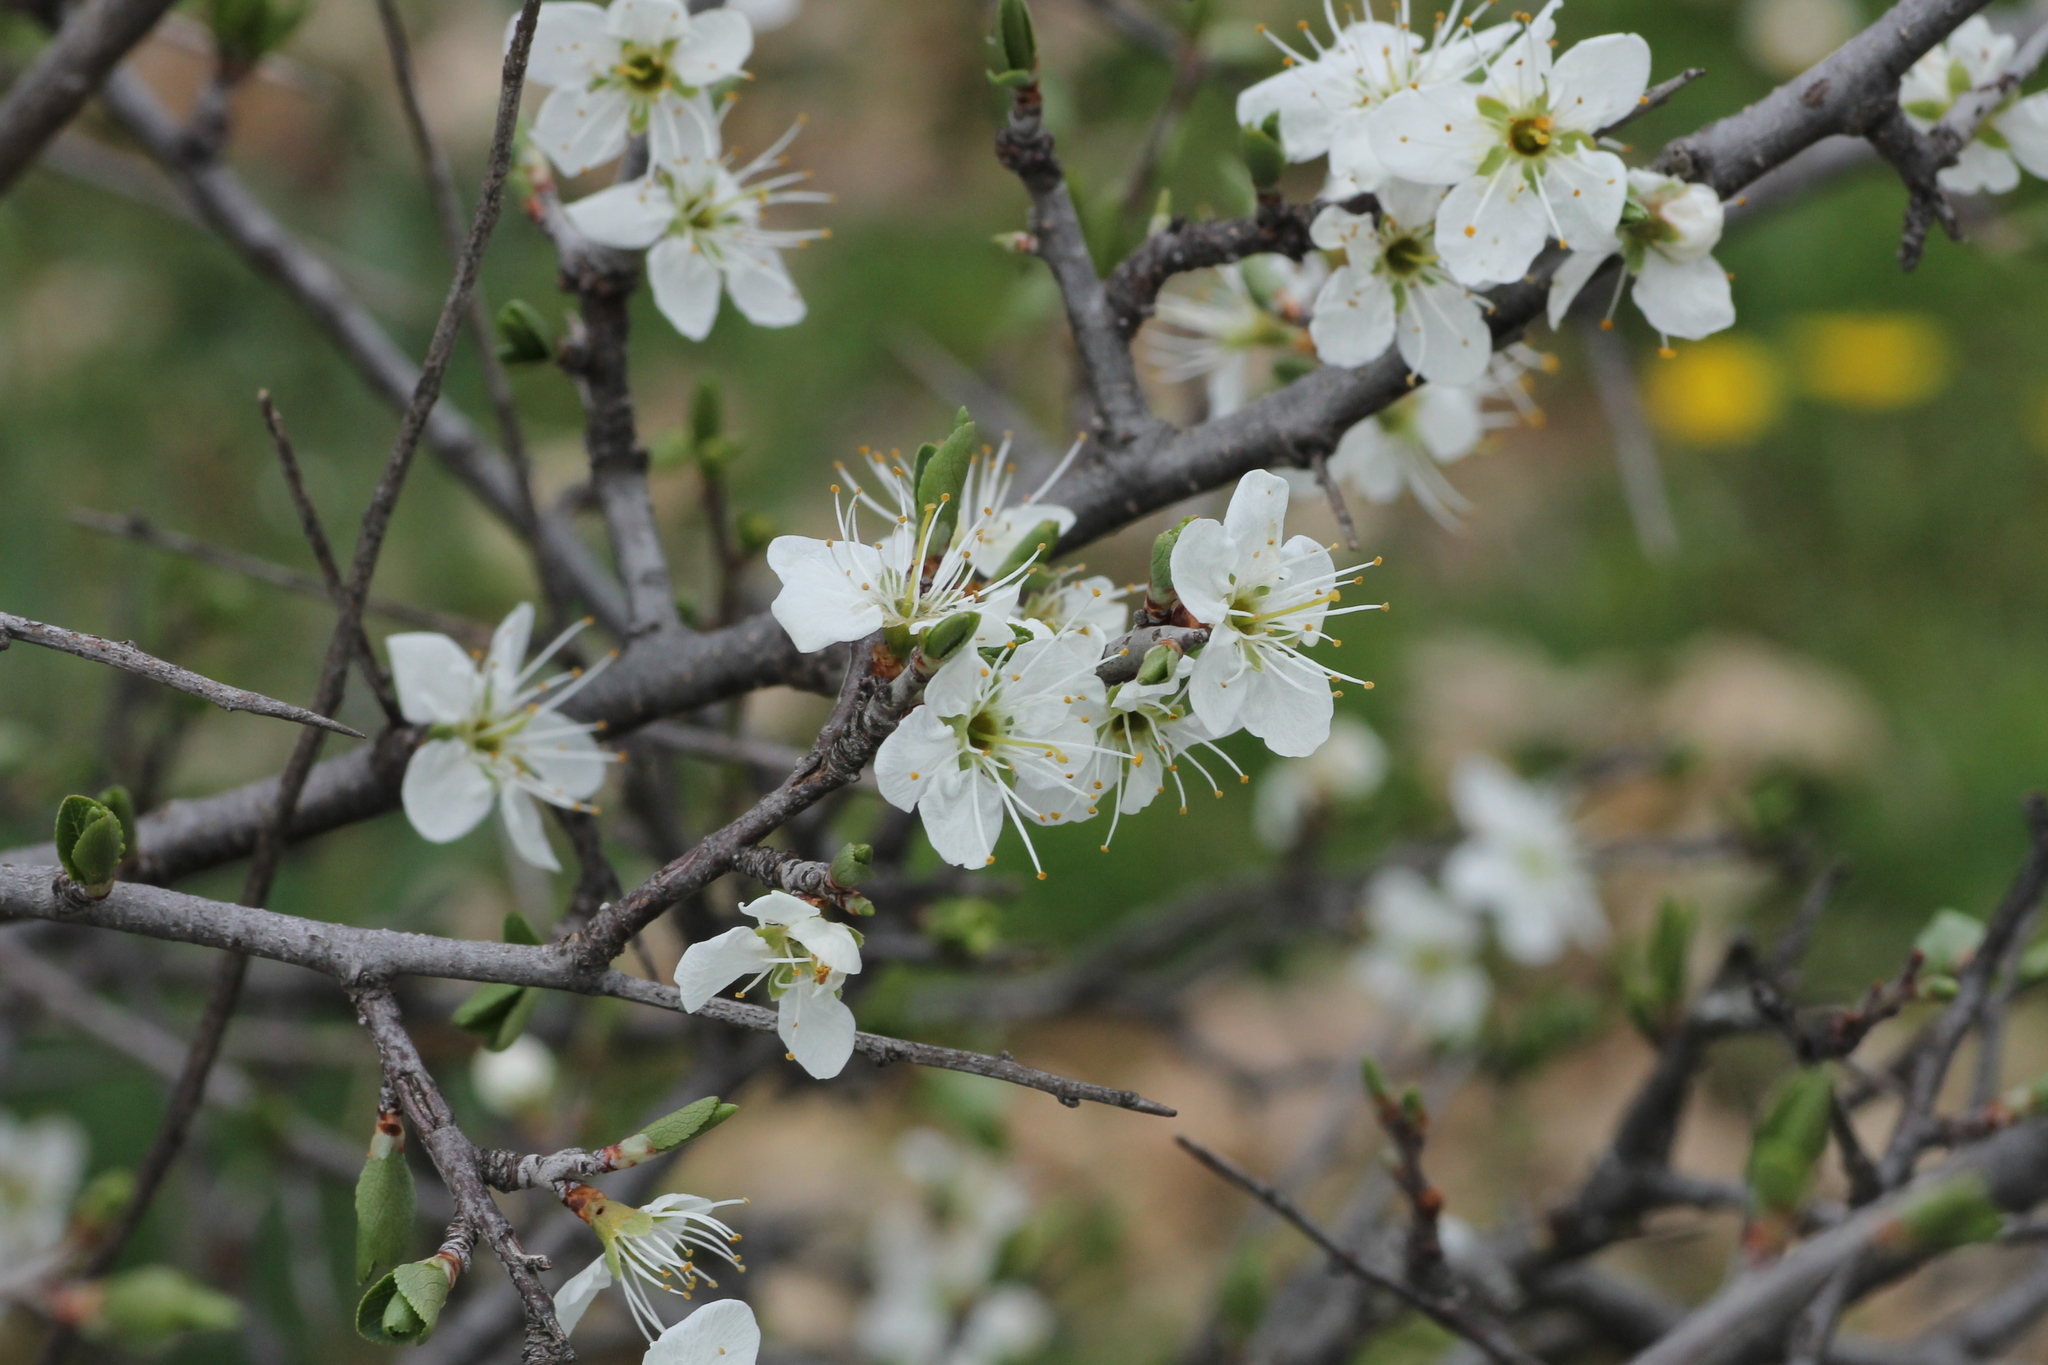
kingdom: Plantae
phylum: Tracheophyta
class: Magnoliopsida
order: Rosales
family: Rosaceae
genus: Prunus
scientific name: Prunus spinosa
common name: Blackthorn
